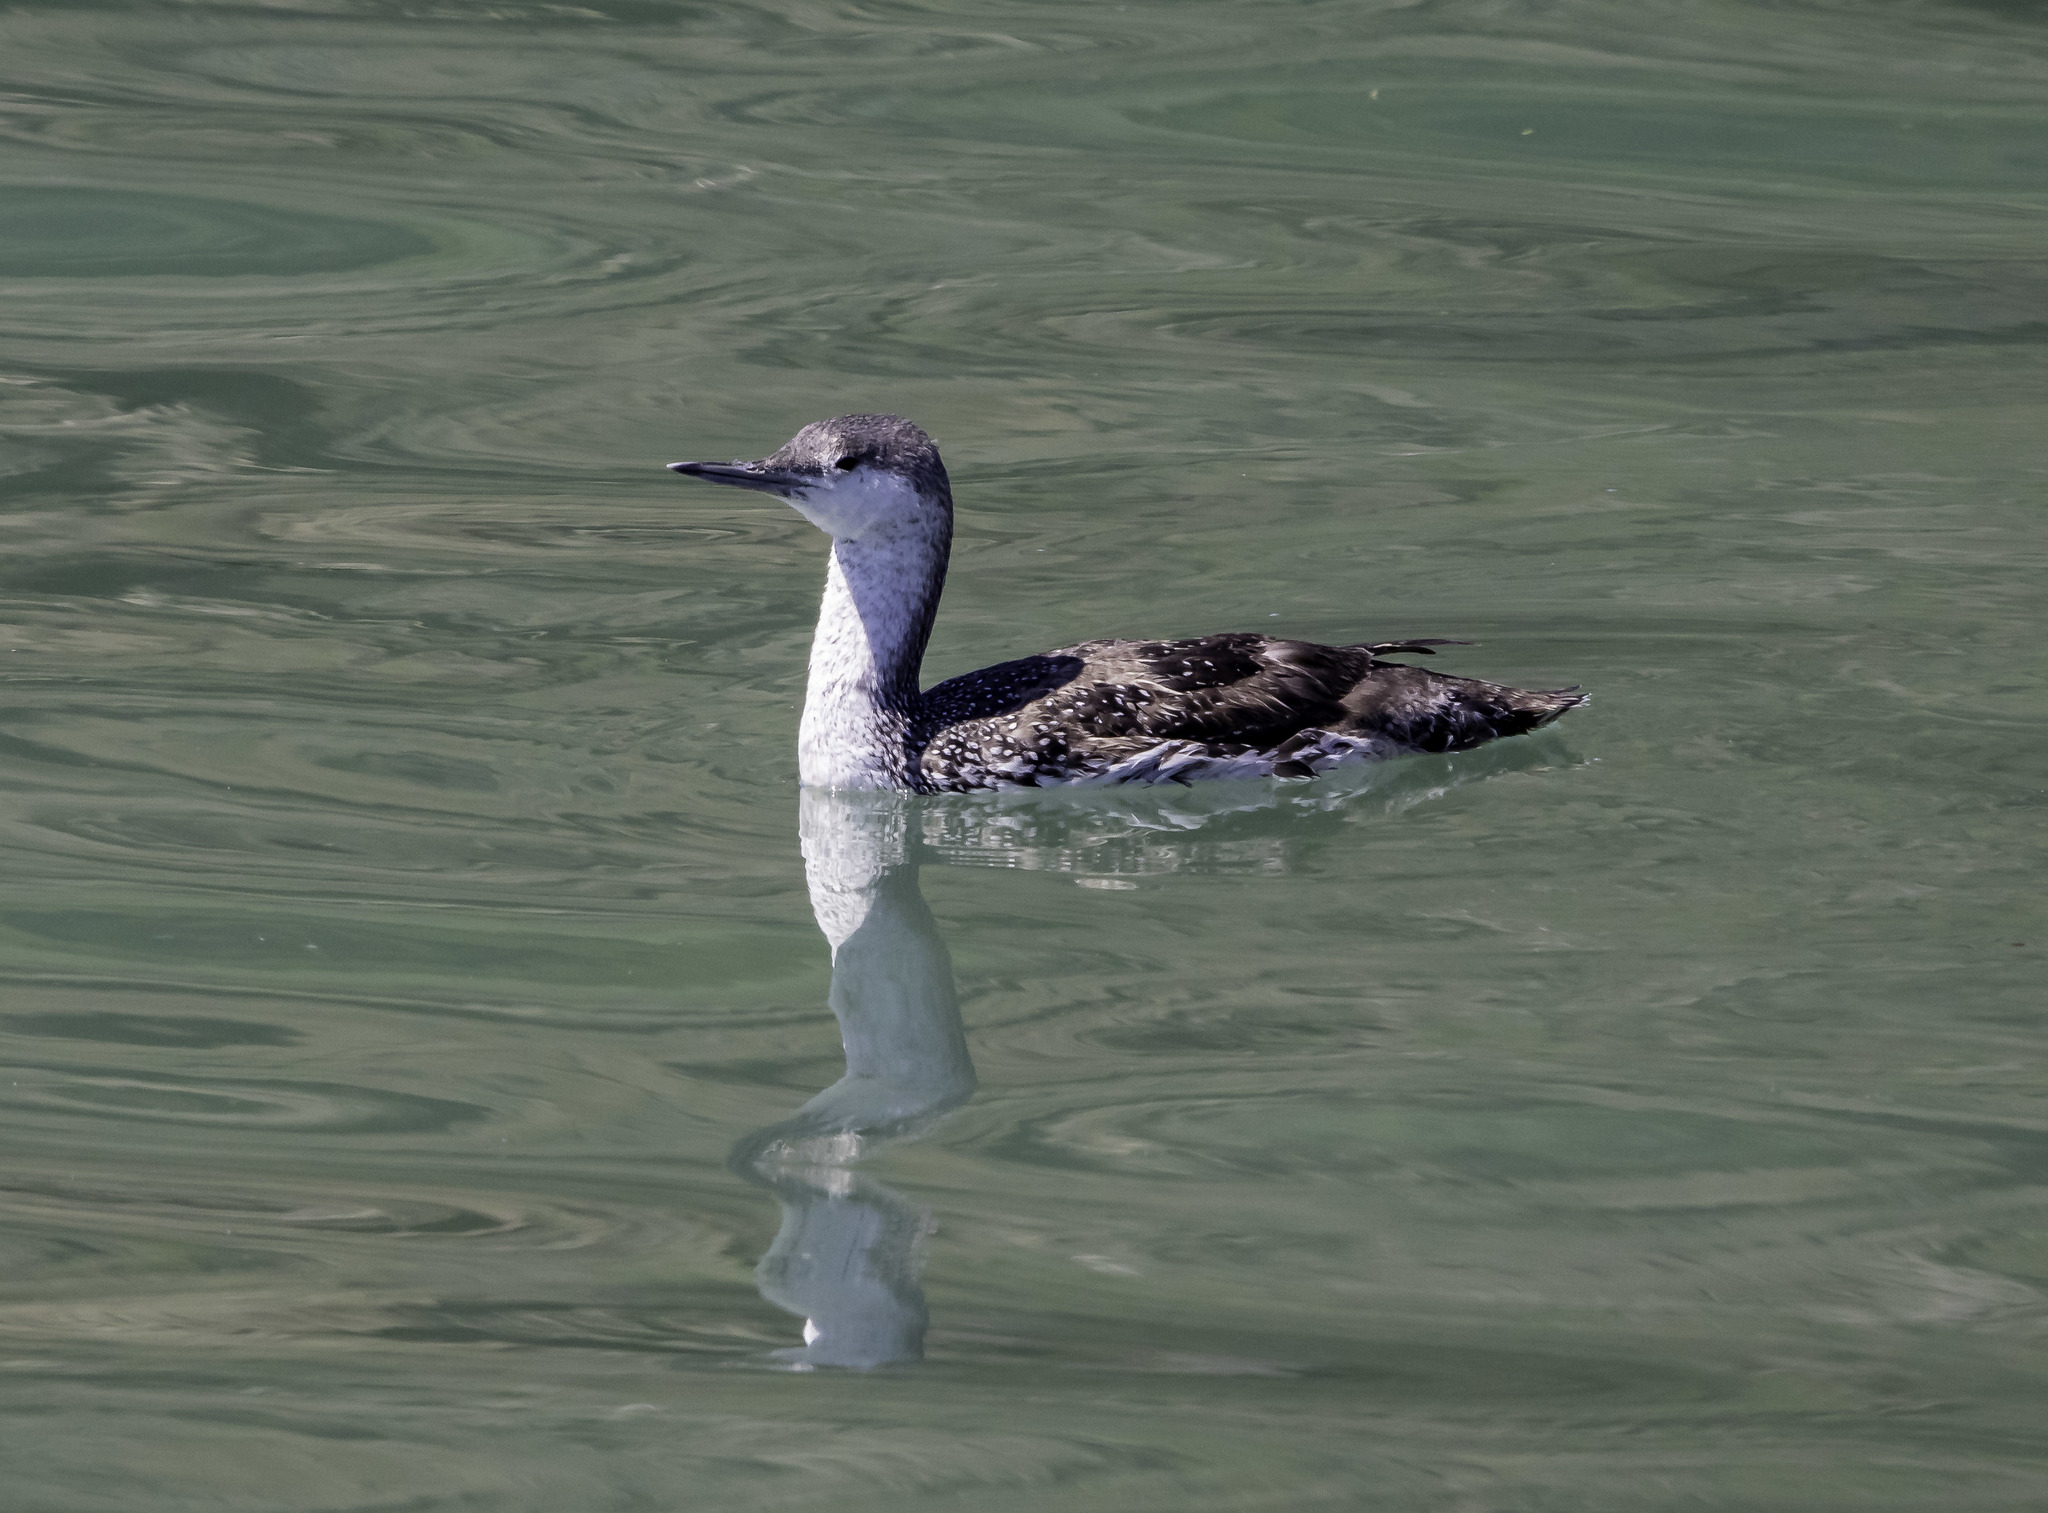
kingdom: Animalia
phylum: Chordata
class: Aves
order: Gaviiformes
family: Gaviidae
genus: Gavia
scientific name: Gavia stellata
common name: Red-throated loon
